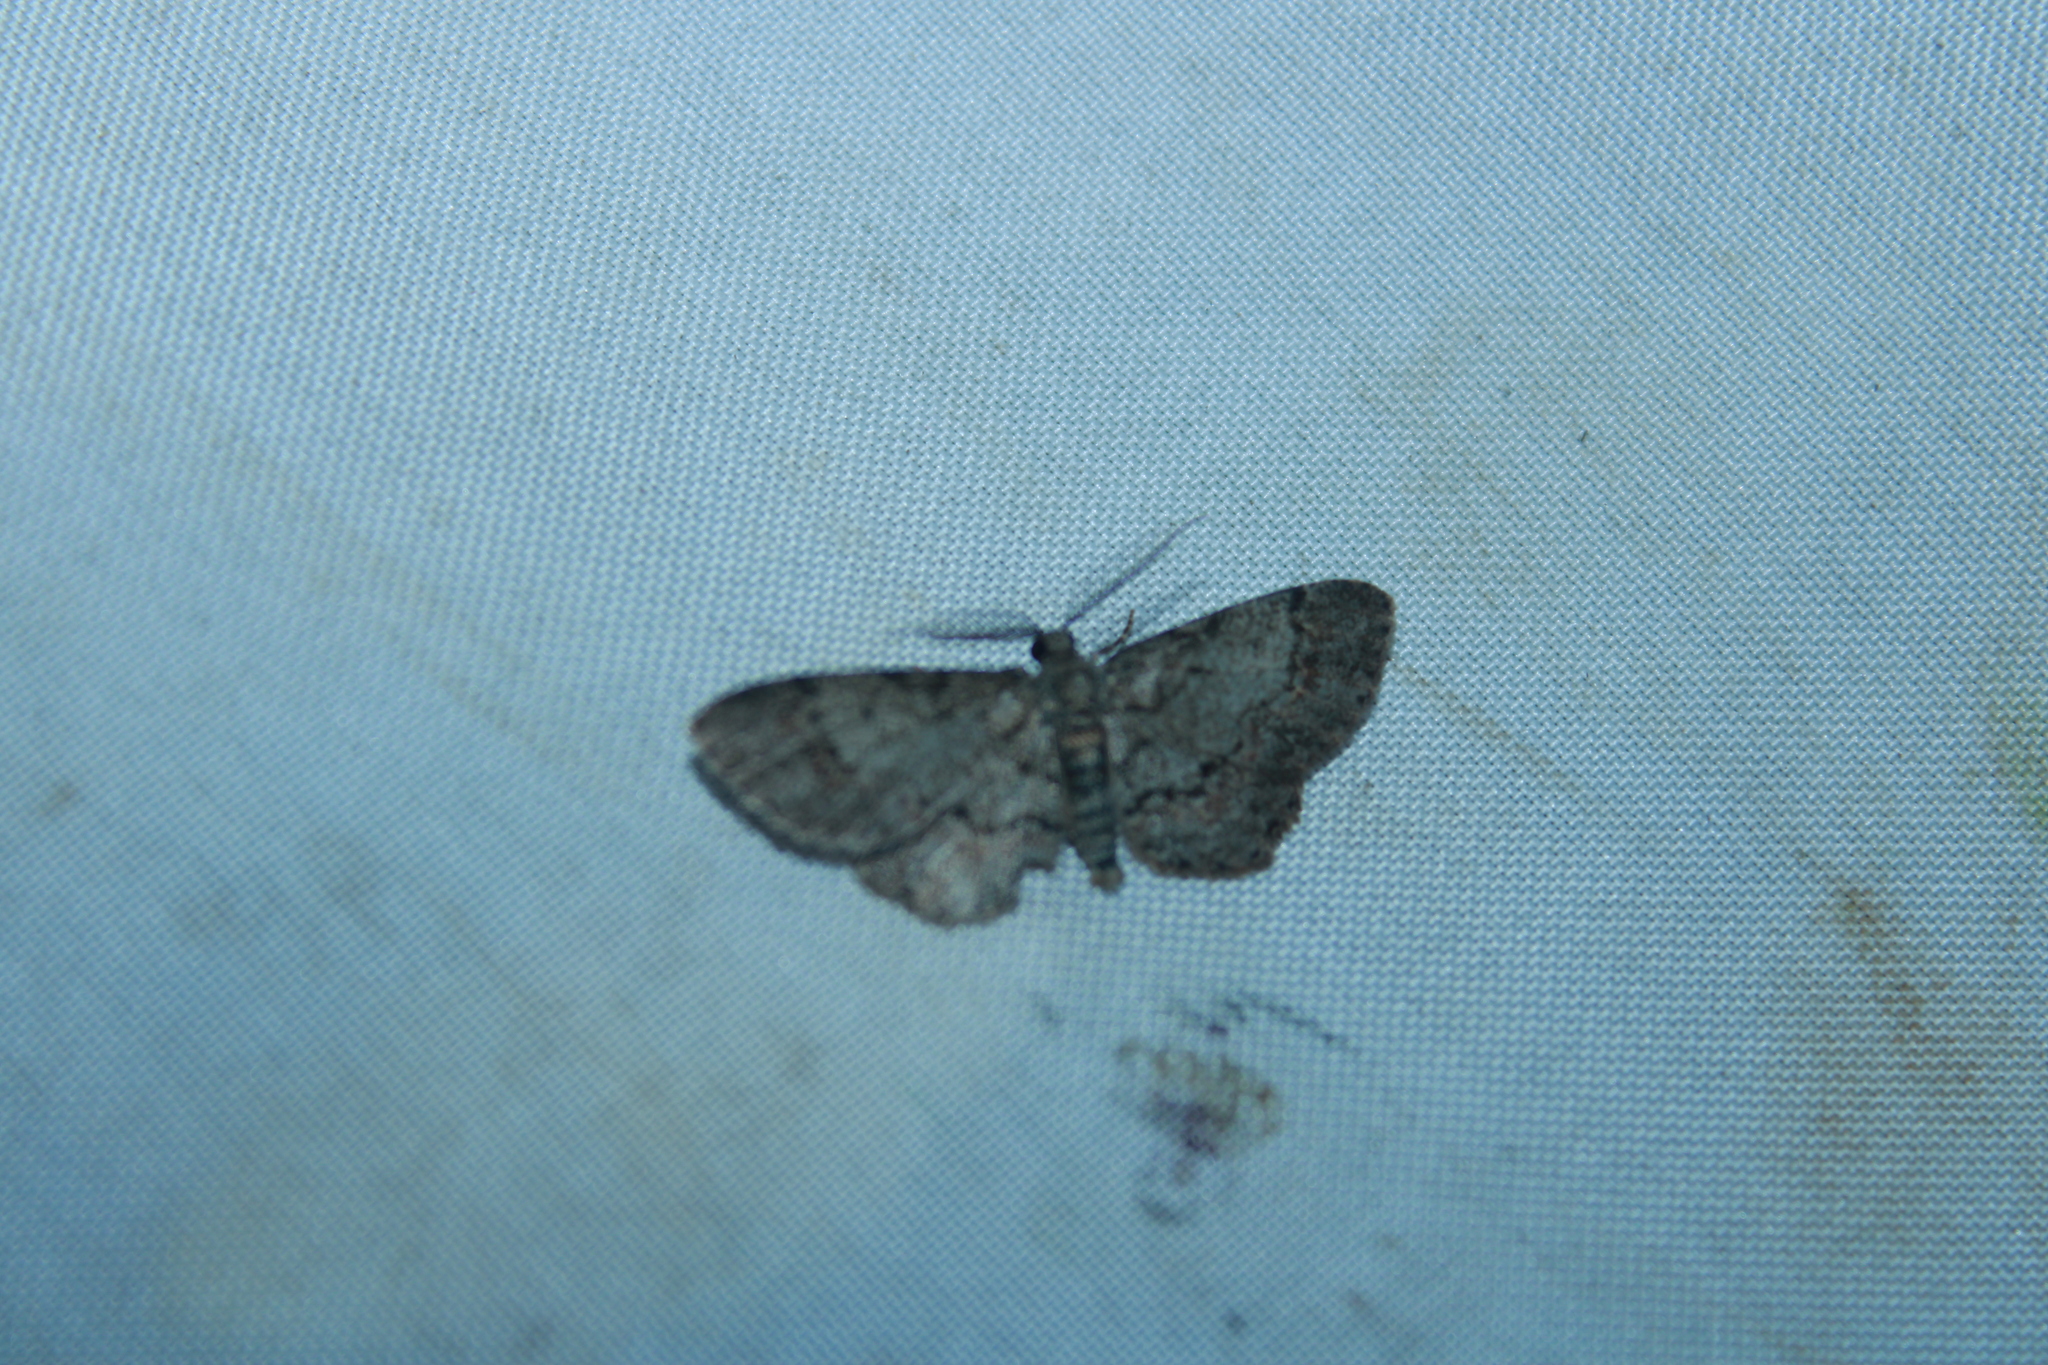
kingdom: Animalia
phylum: Arthropoda
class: Insecta
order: Lepidoptera
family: Geometridae
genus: Glenoides
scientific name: Glenoides texanaria
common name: Texas gray
